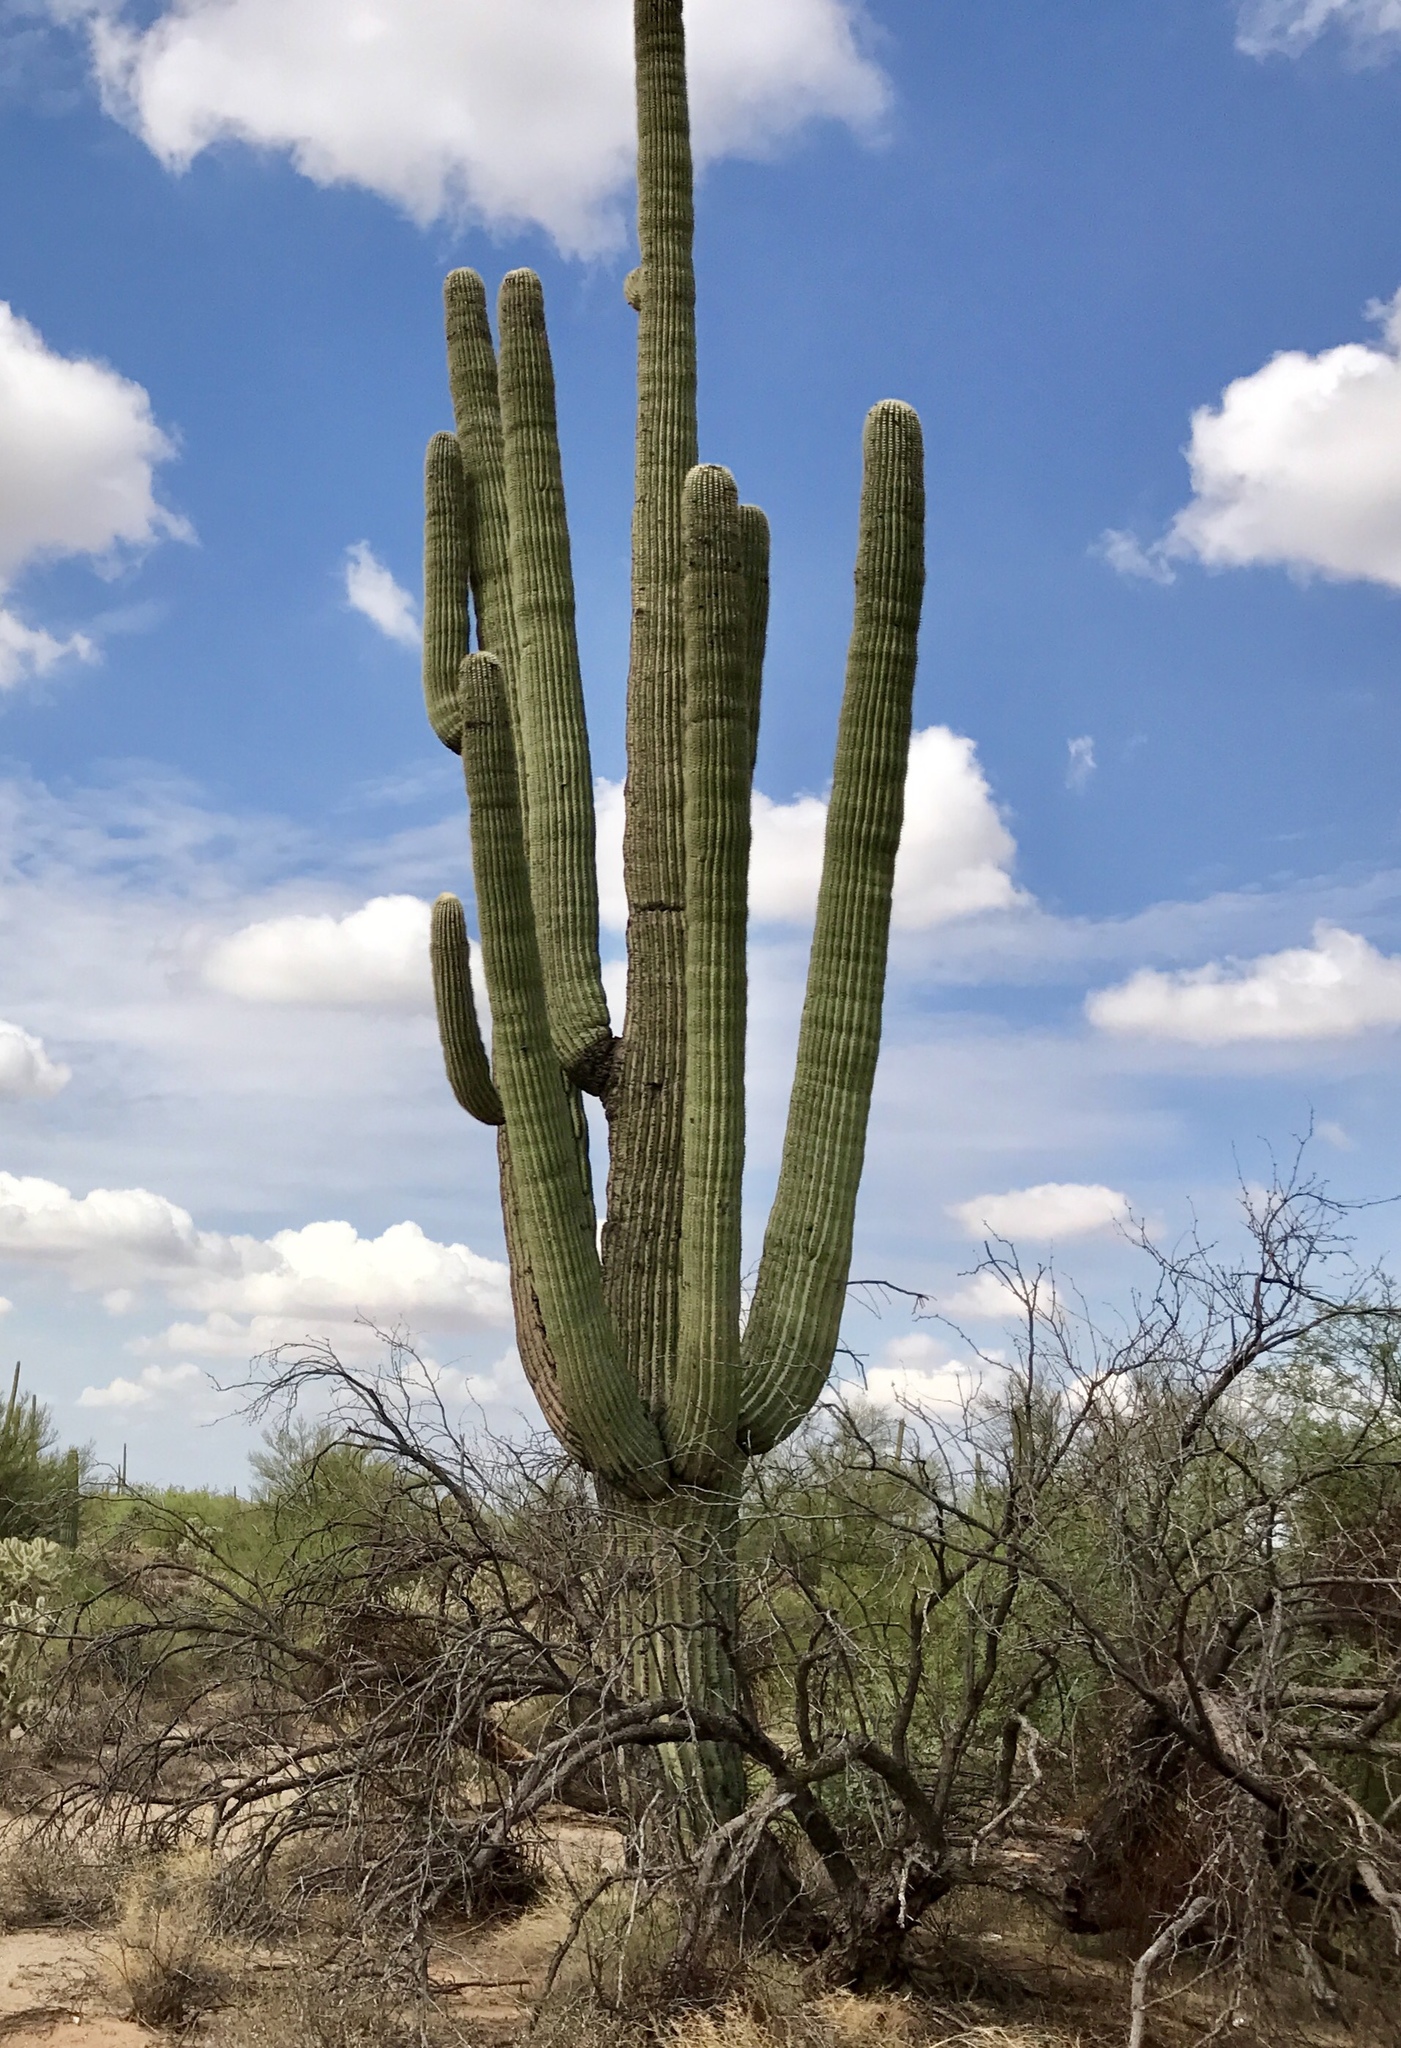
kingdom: Plantae
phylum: Tracheophyta
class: Magnoliopsida
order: Caryophyllales
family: Cactaceae
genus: Carnegiea
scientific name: Carnegiea gigantea
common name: Saguaro
